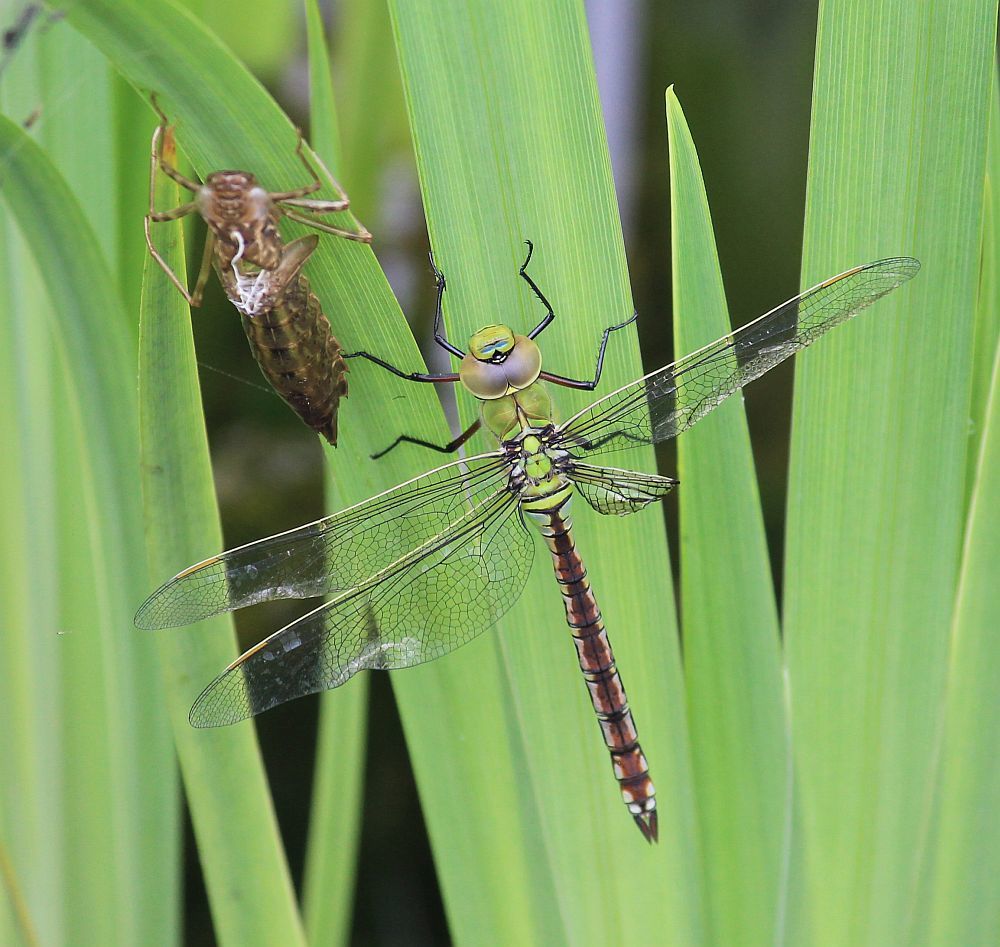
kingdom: Animalia
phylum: Arthropoda
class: Insecta
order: Odonata
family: Aeshnidae
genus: Anax
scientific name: Anax imperator
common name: Emperor dragonfly
